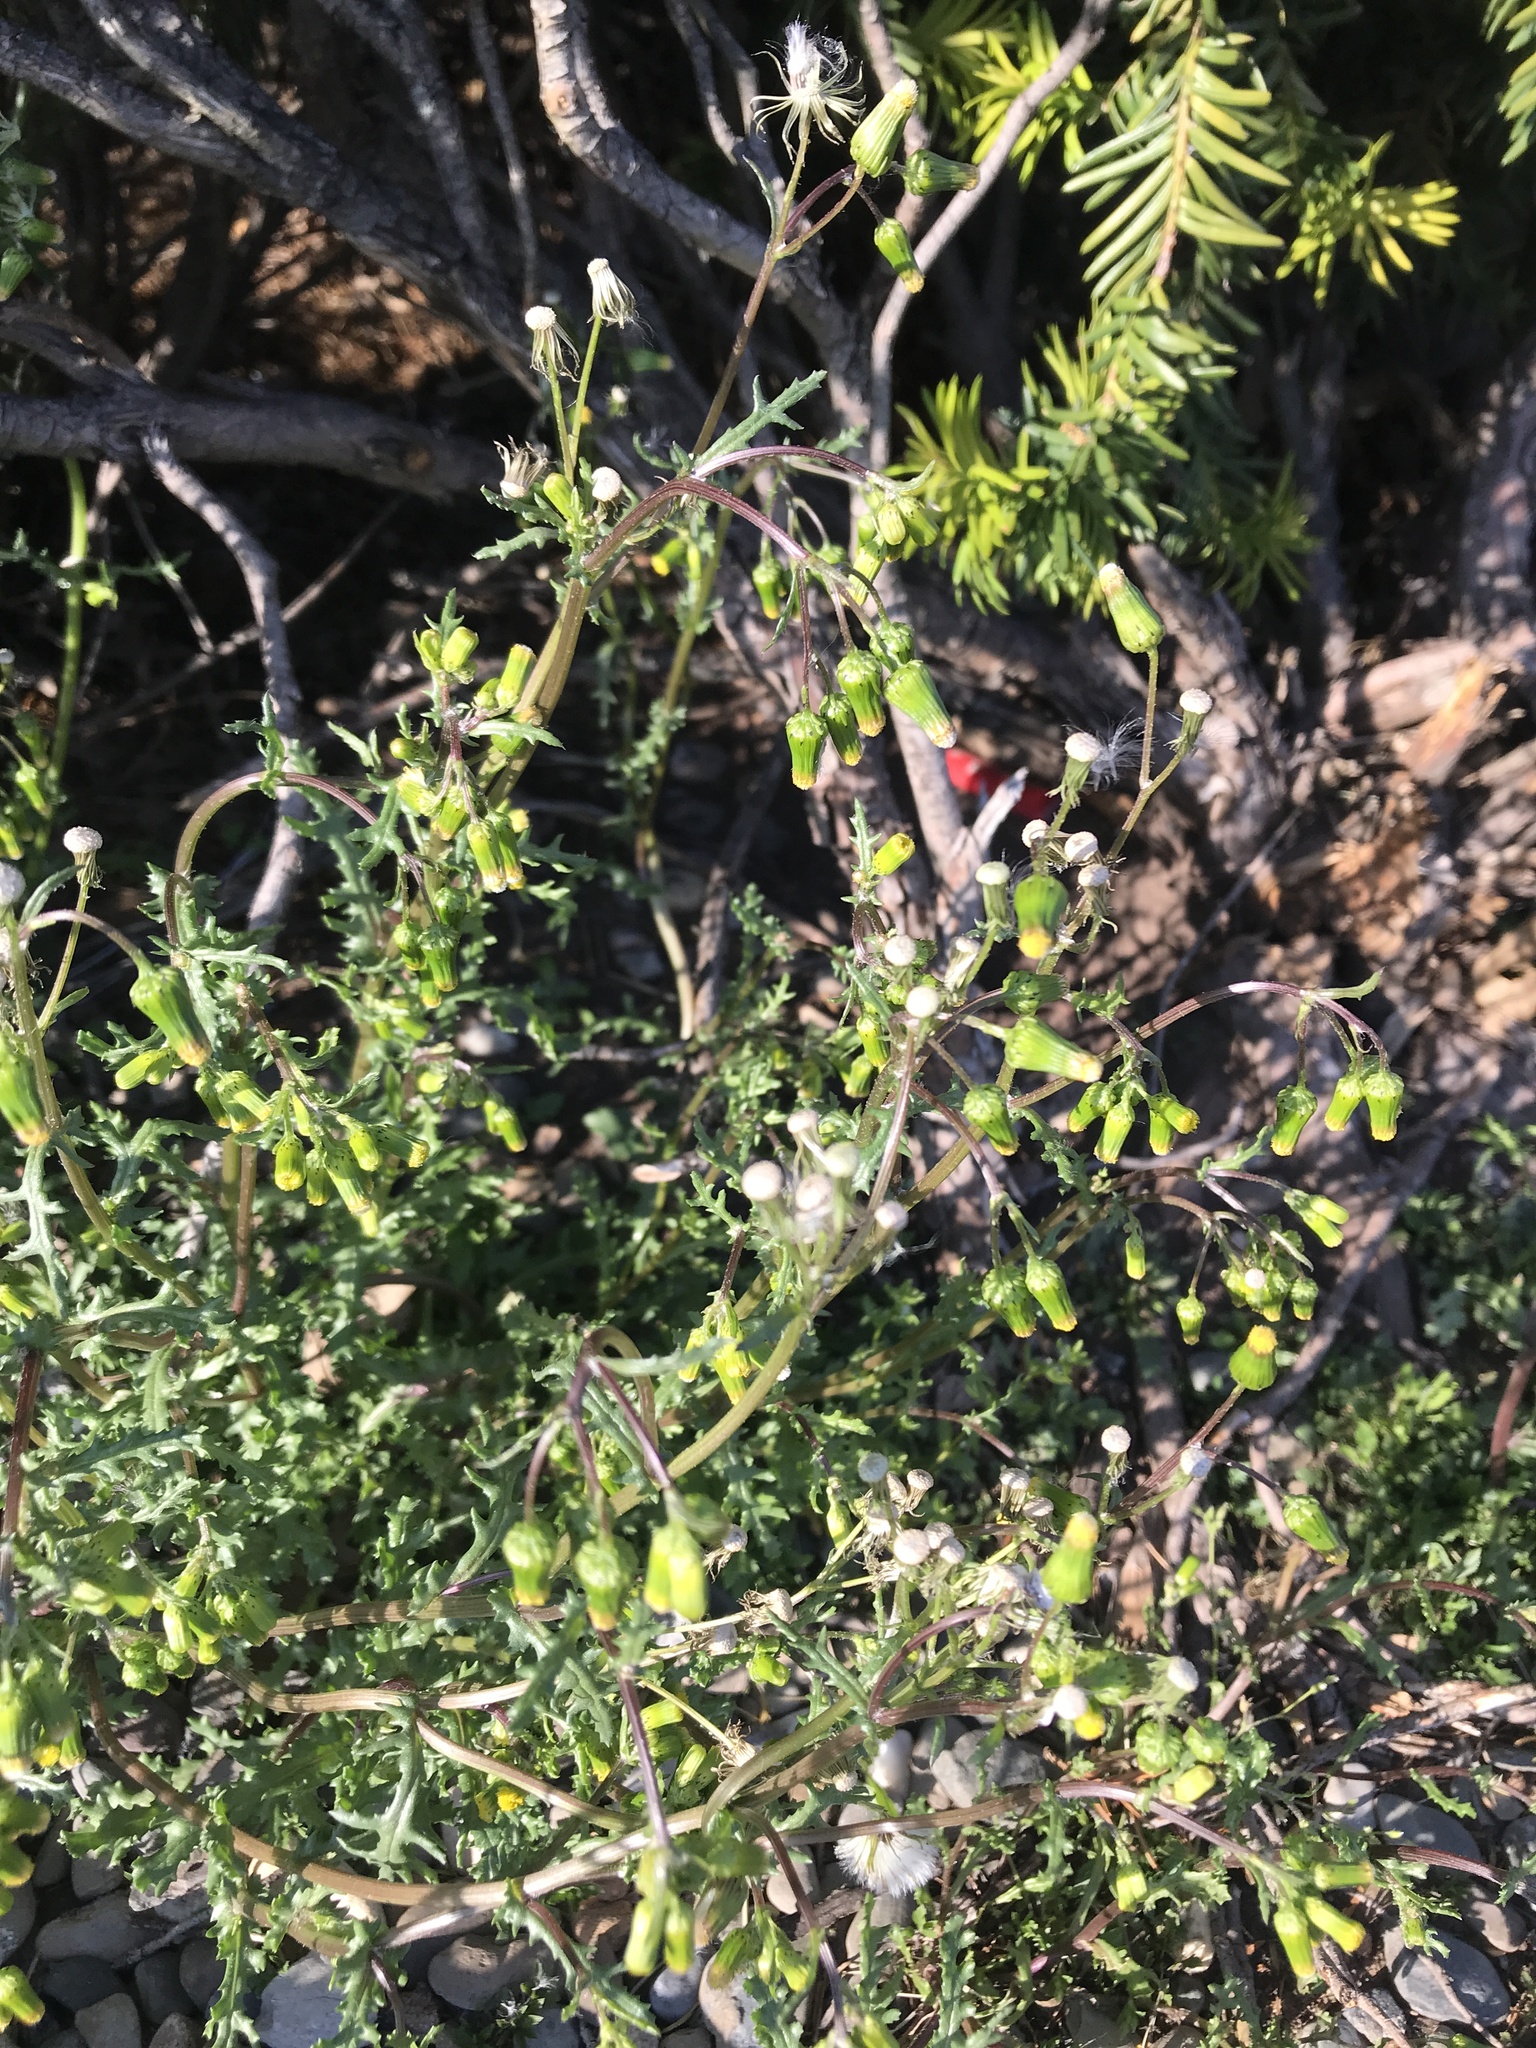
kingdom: Plantae
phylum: Tracheophyta
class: Magnoliopsida
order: Asterales
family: Asteraceae
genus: Senecio
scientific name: Senecio vulgaris
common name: Old-man-in-the-spring
